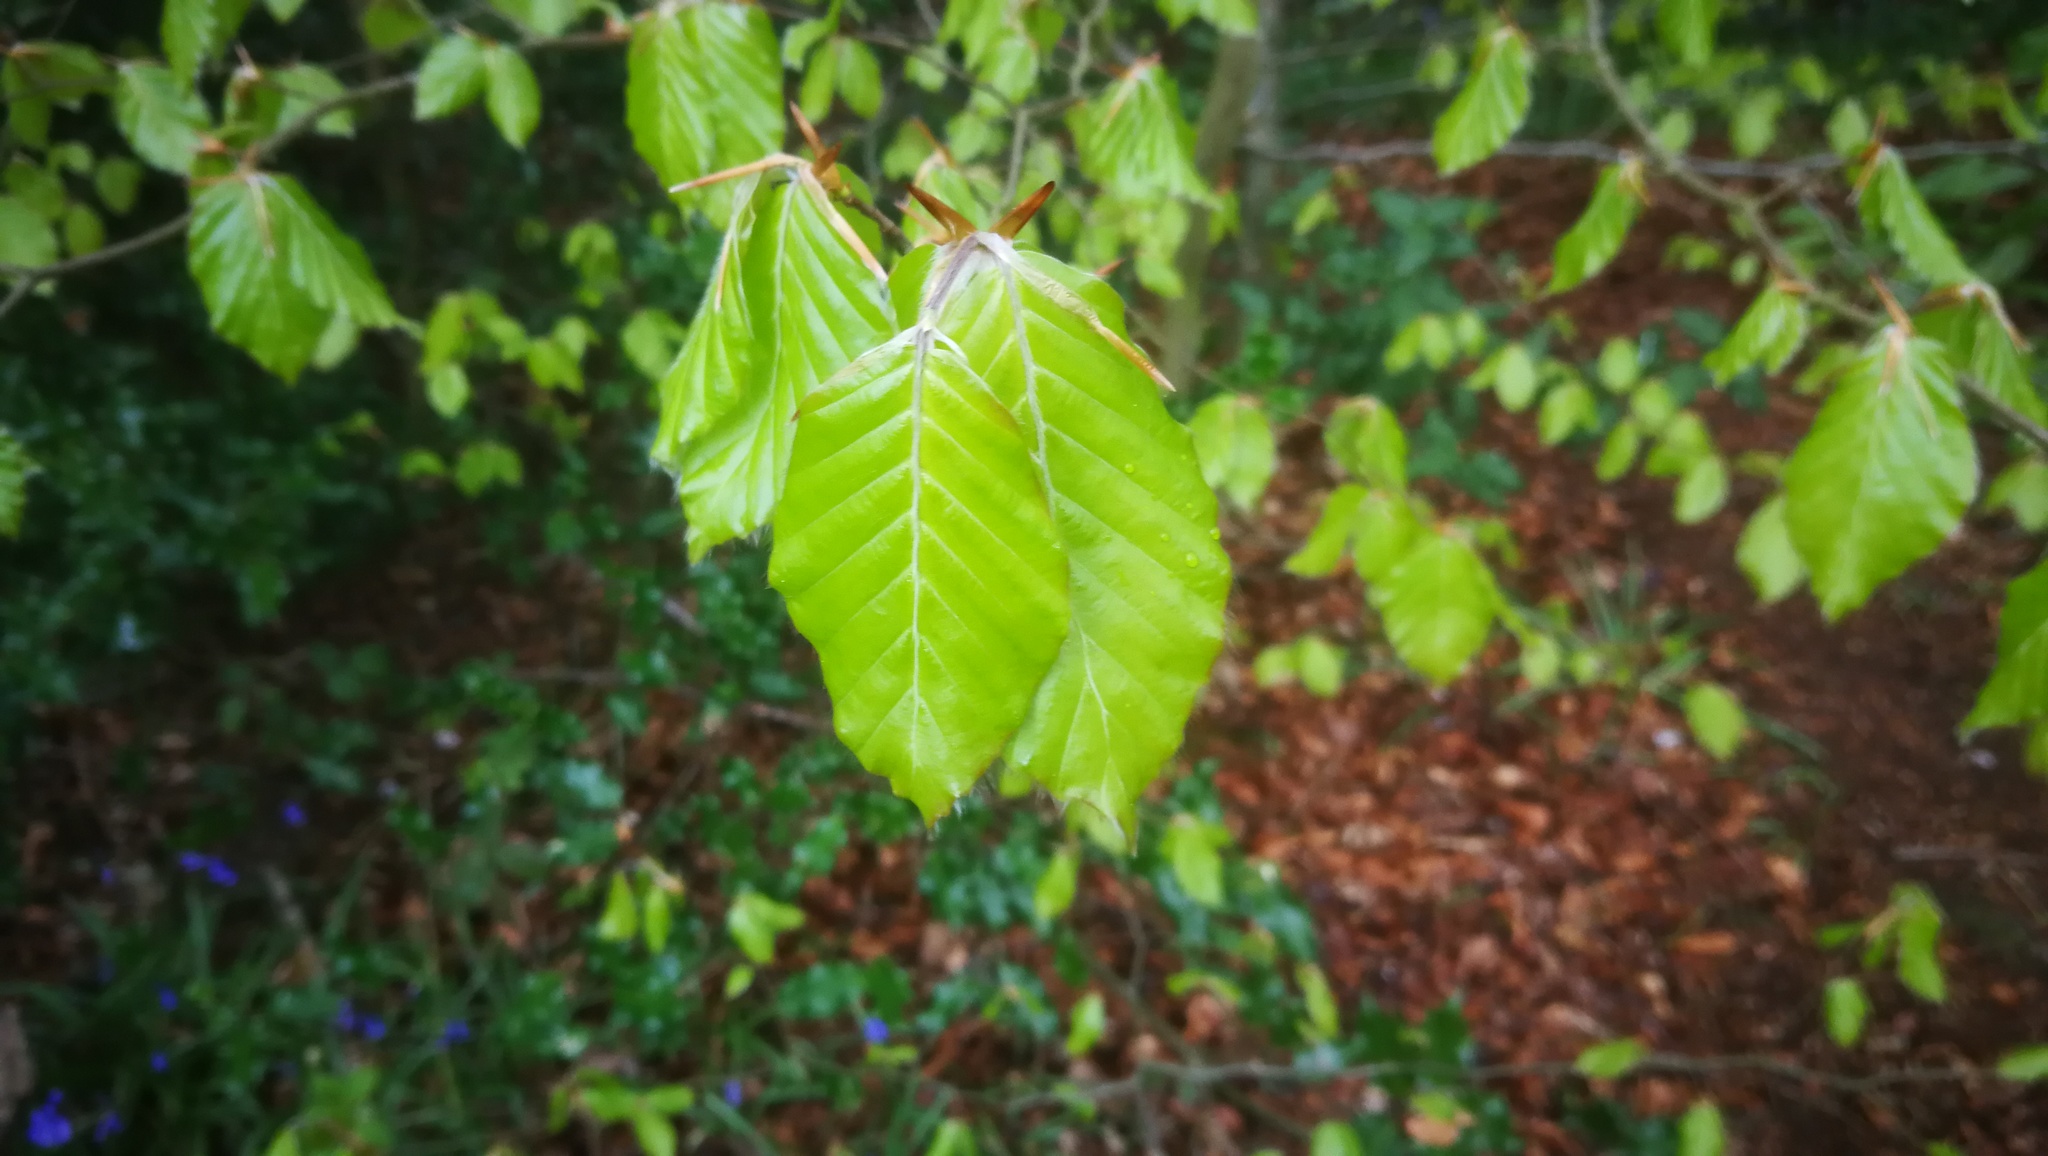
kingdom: Plantae
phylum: Tracheophyta
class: Magnoliopsida
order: Fagales
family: Fagaceae
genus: Fagus
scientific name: Fagus sylvatica
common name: Beech
